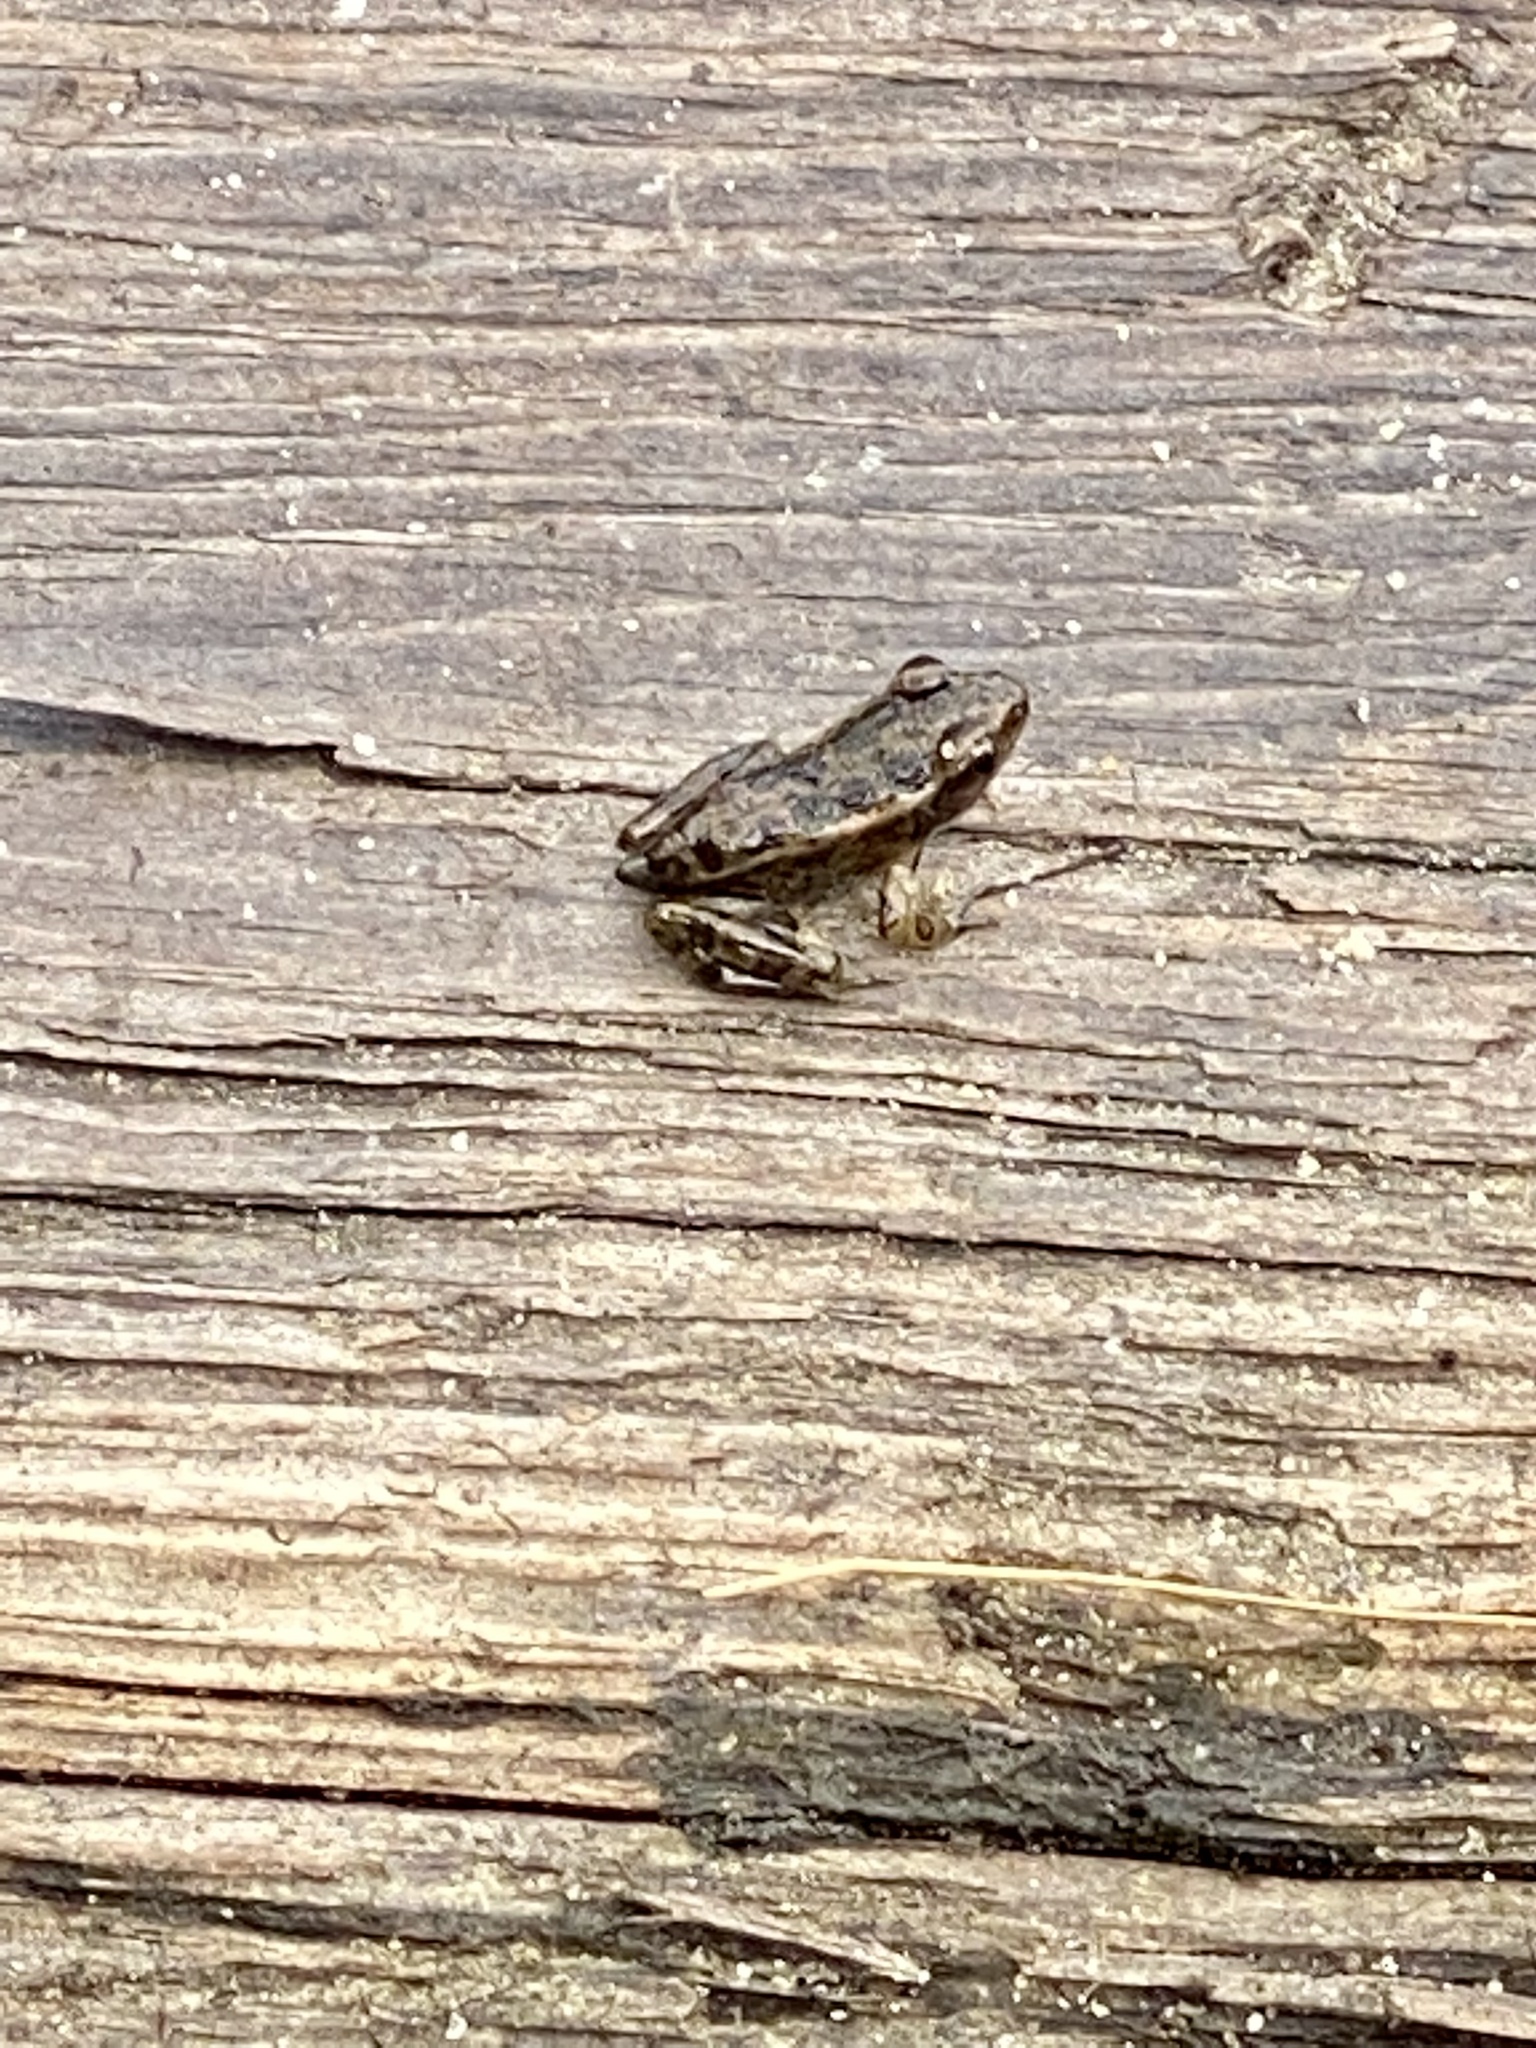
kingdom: Animalia
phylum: Chordata
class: Amphibia
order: Anura
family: Ranidae
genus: Lithobates
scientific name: Lithobates palustris
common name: Pickerel frog
